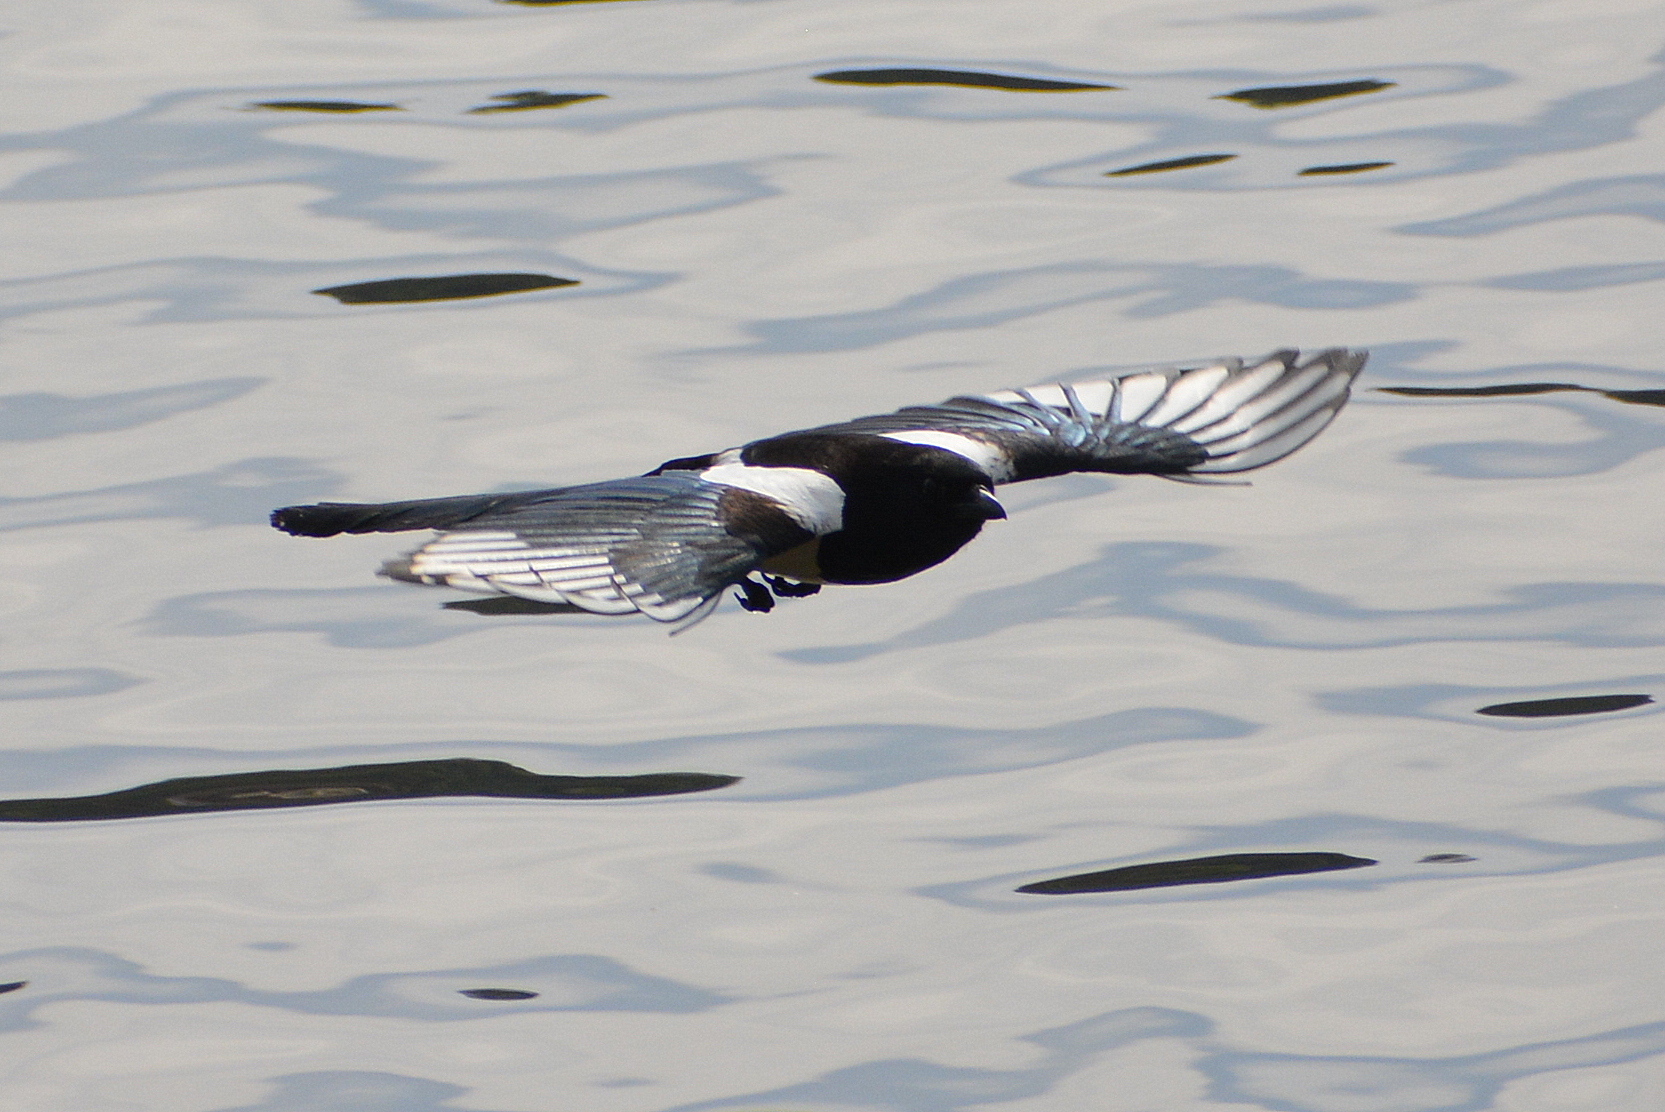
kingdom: Animalia
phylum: Chordata
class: Aves
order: Passeriformes
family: Corvidae
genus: Pica
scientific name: Pica pica
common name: Eurasian magpie
